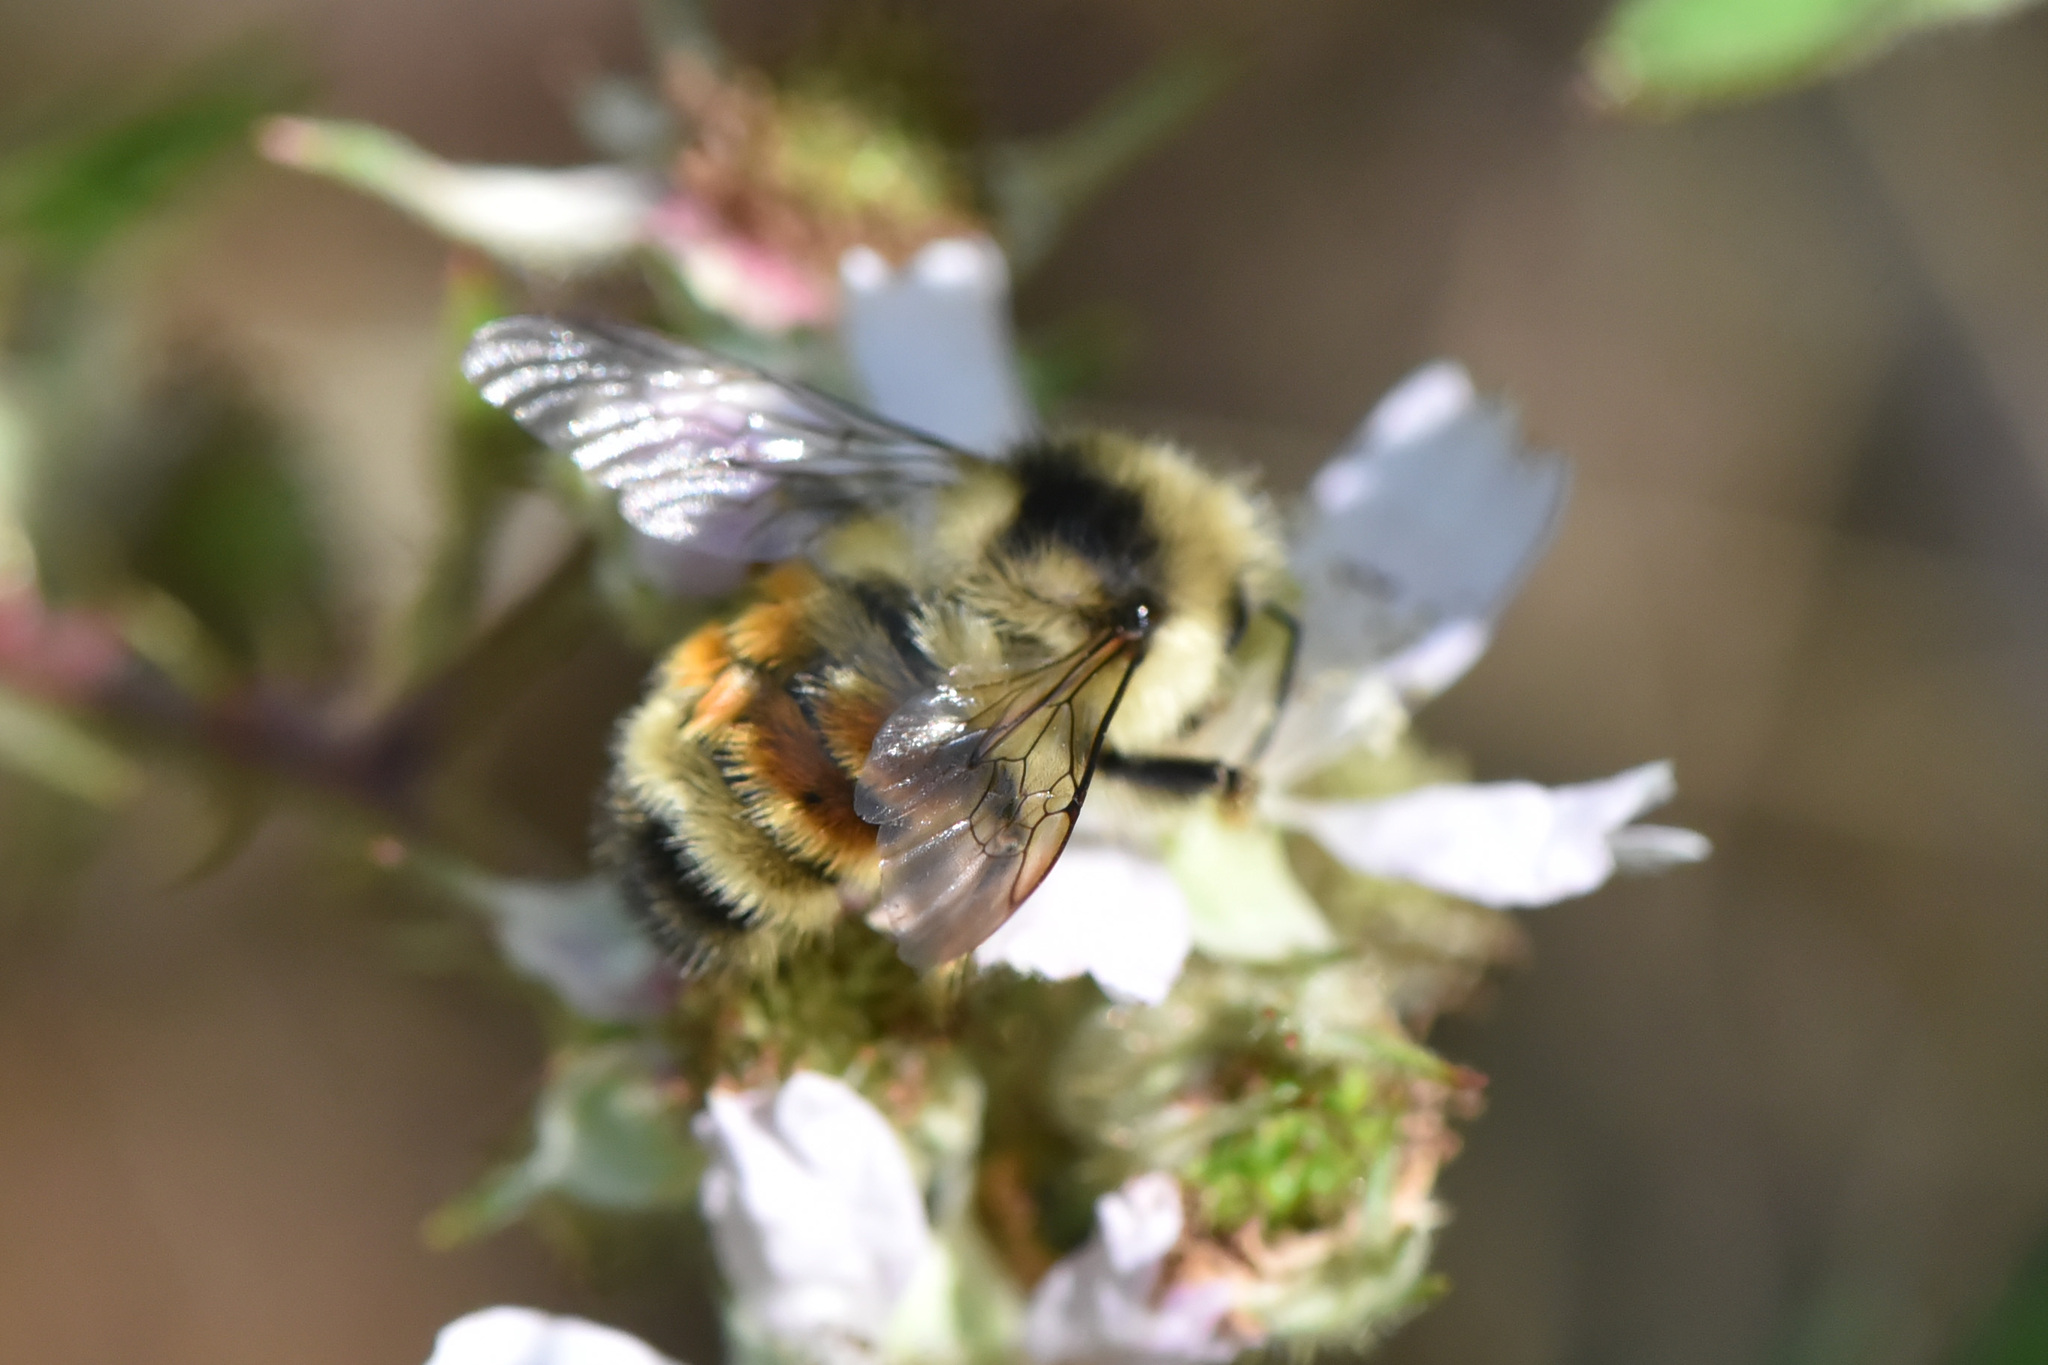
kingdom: Animalia
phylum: Arthropoda
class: Insecta
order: Hymenoptera
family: Apidae
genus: Bombus
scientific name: Bombus vancouverensis
